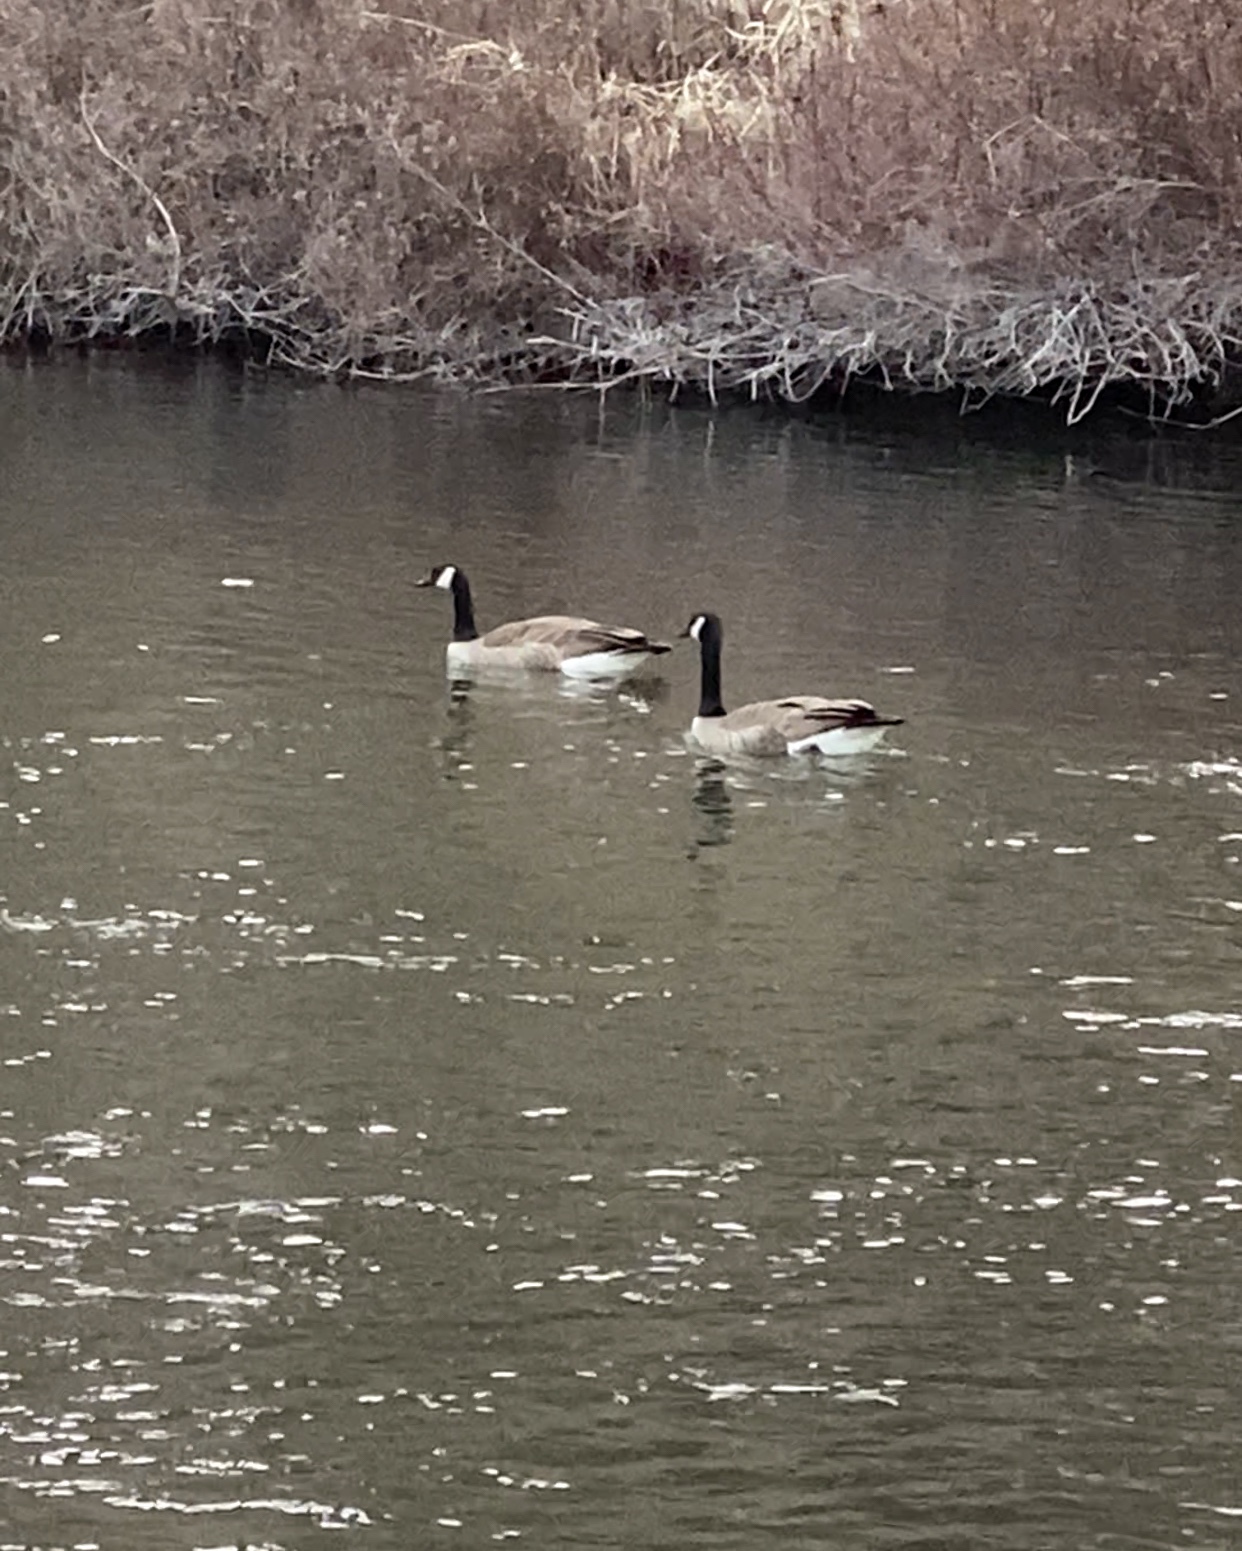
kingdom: Animalia
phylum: Chordata
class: Aves
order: Anseriformes
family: Anatidae
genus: Branta
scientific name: Branta canadensis
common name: Canada goose
